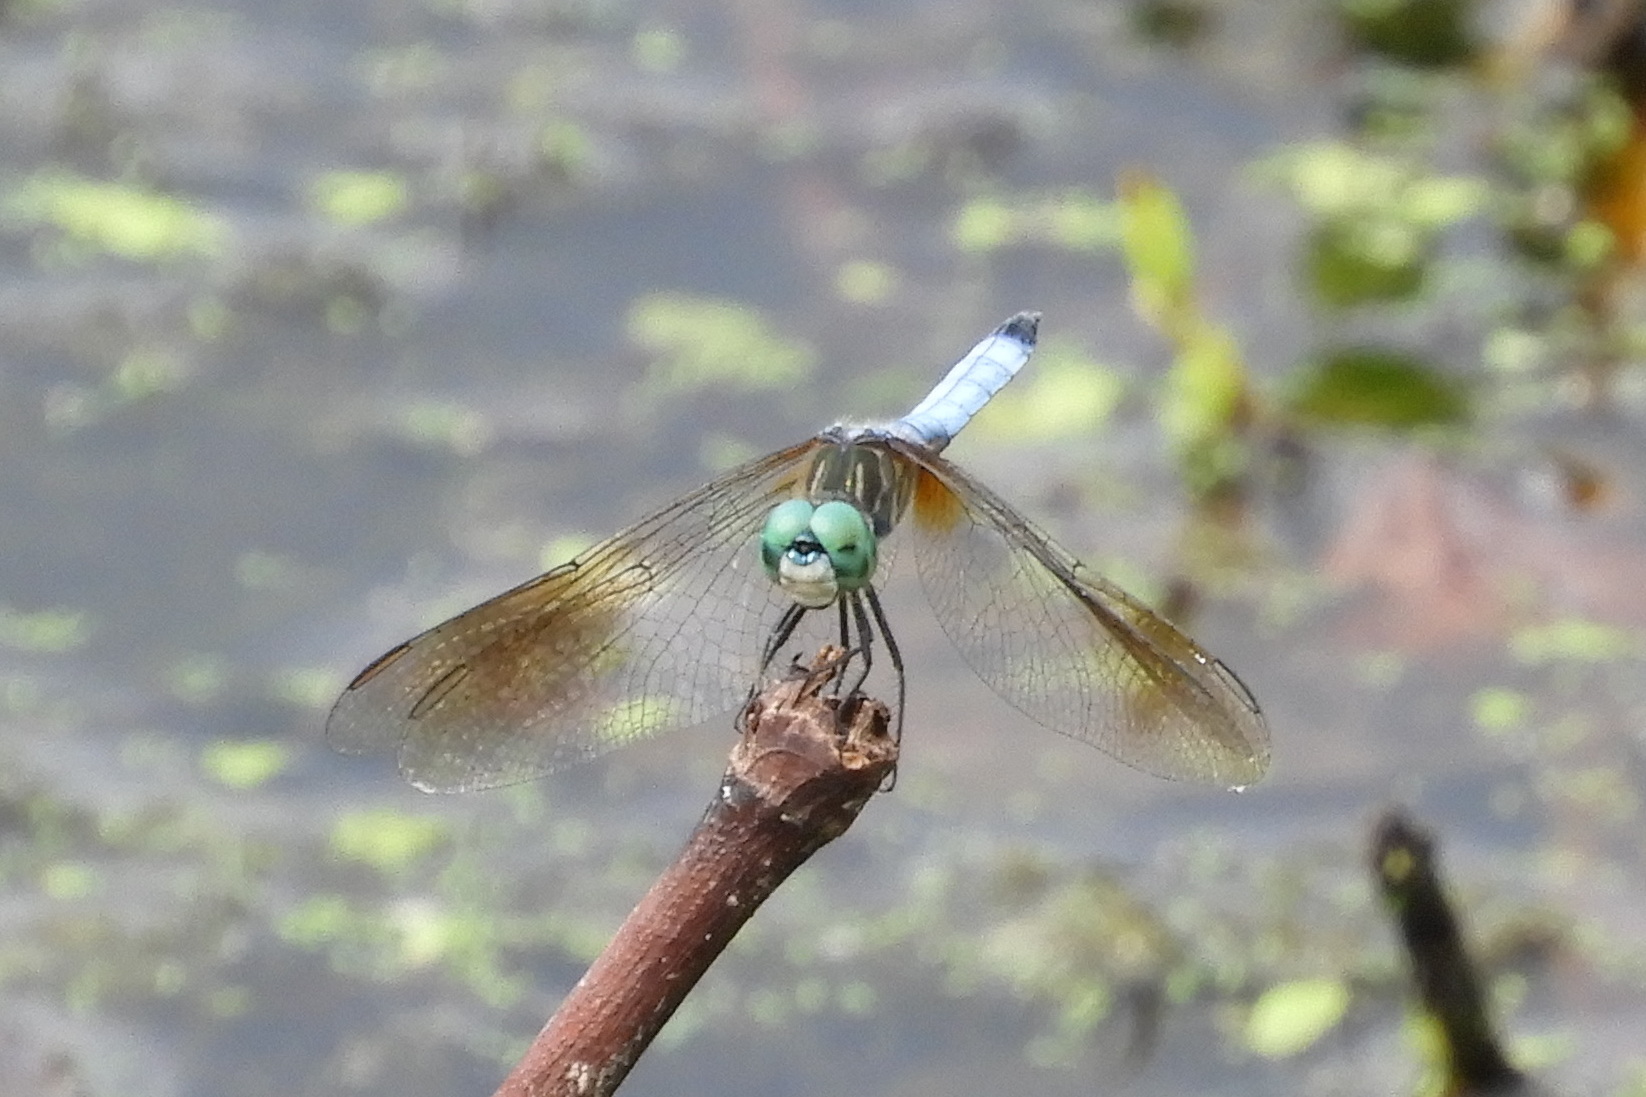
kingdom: Animalia
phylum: Arthropoda
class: Insecta
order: Odonata
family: Libellulidae
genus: Pachydiplax
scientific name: Pachydiplax longipennis
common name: Blue dasher
